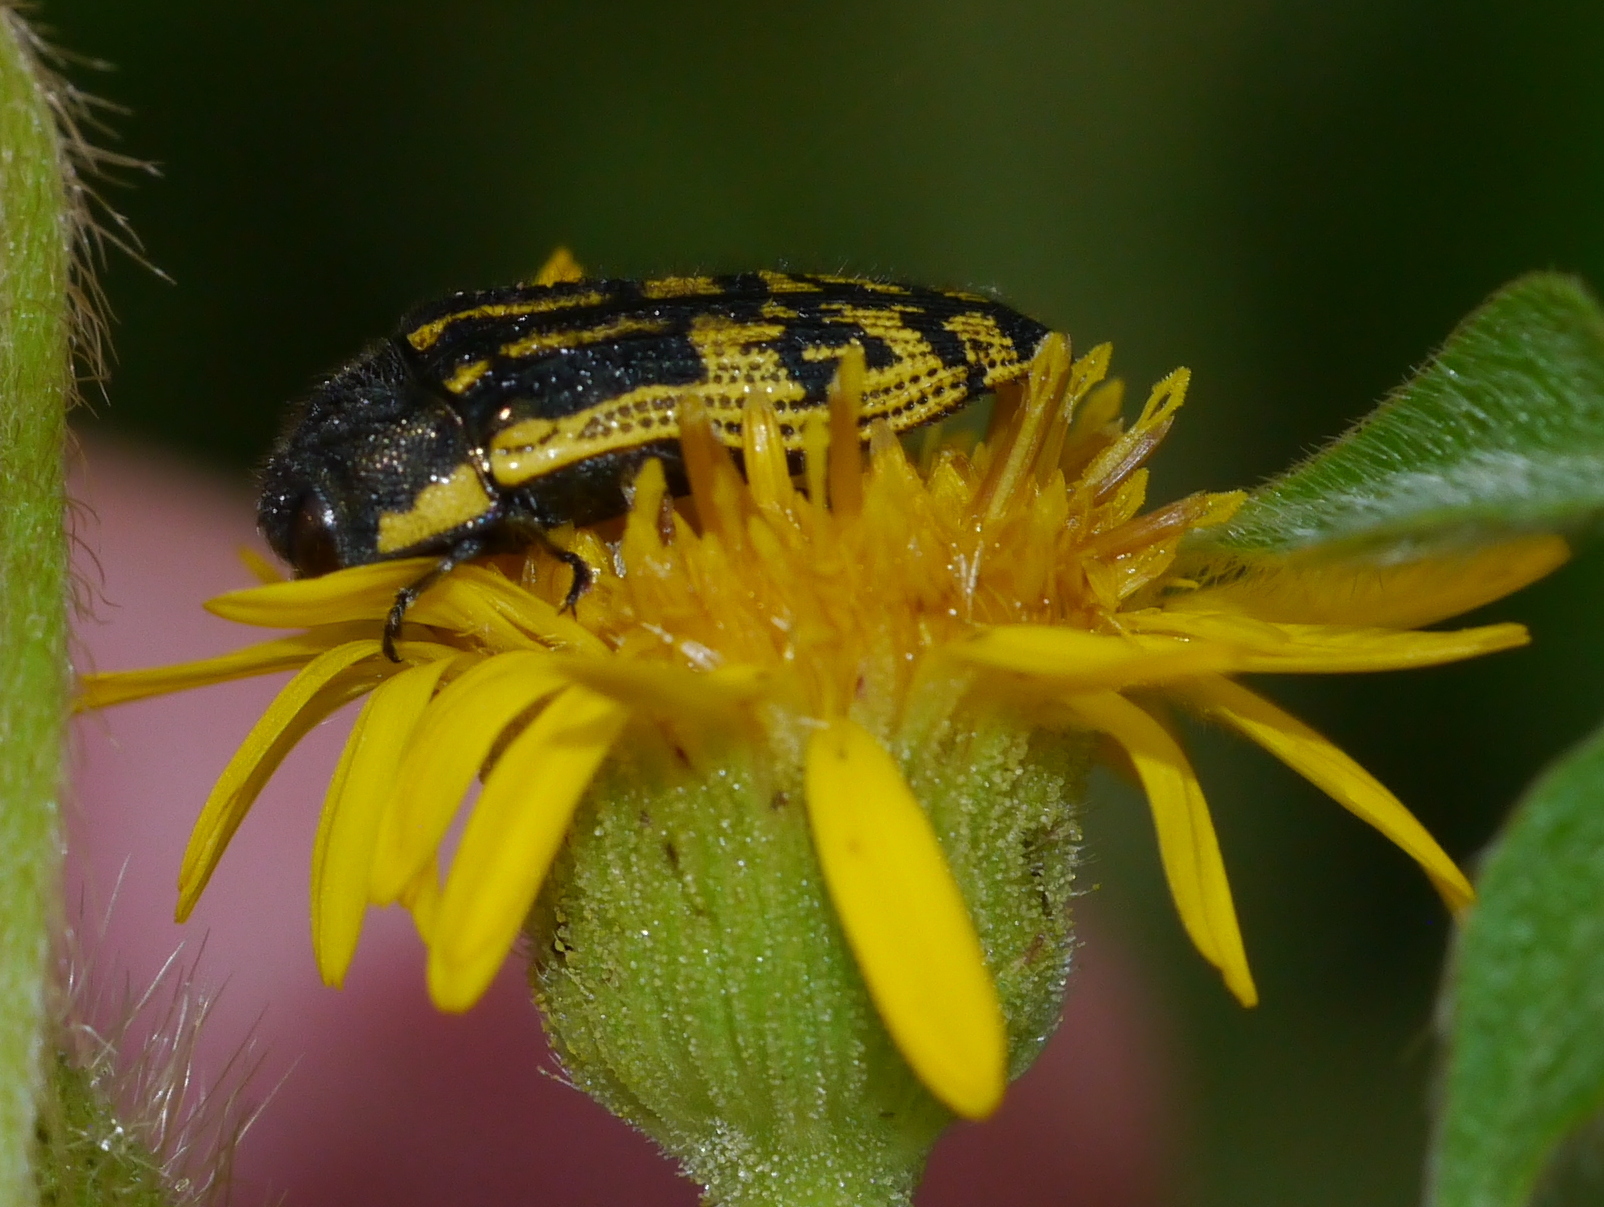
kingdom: Animalia
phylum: Arthropoda
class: Insecta
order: Coleoptera
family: Buprestidae
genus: Acmaeodera
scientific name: Acmaeodera amplicollis
